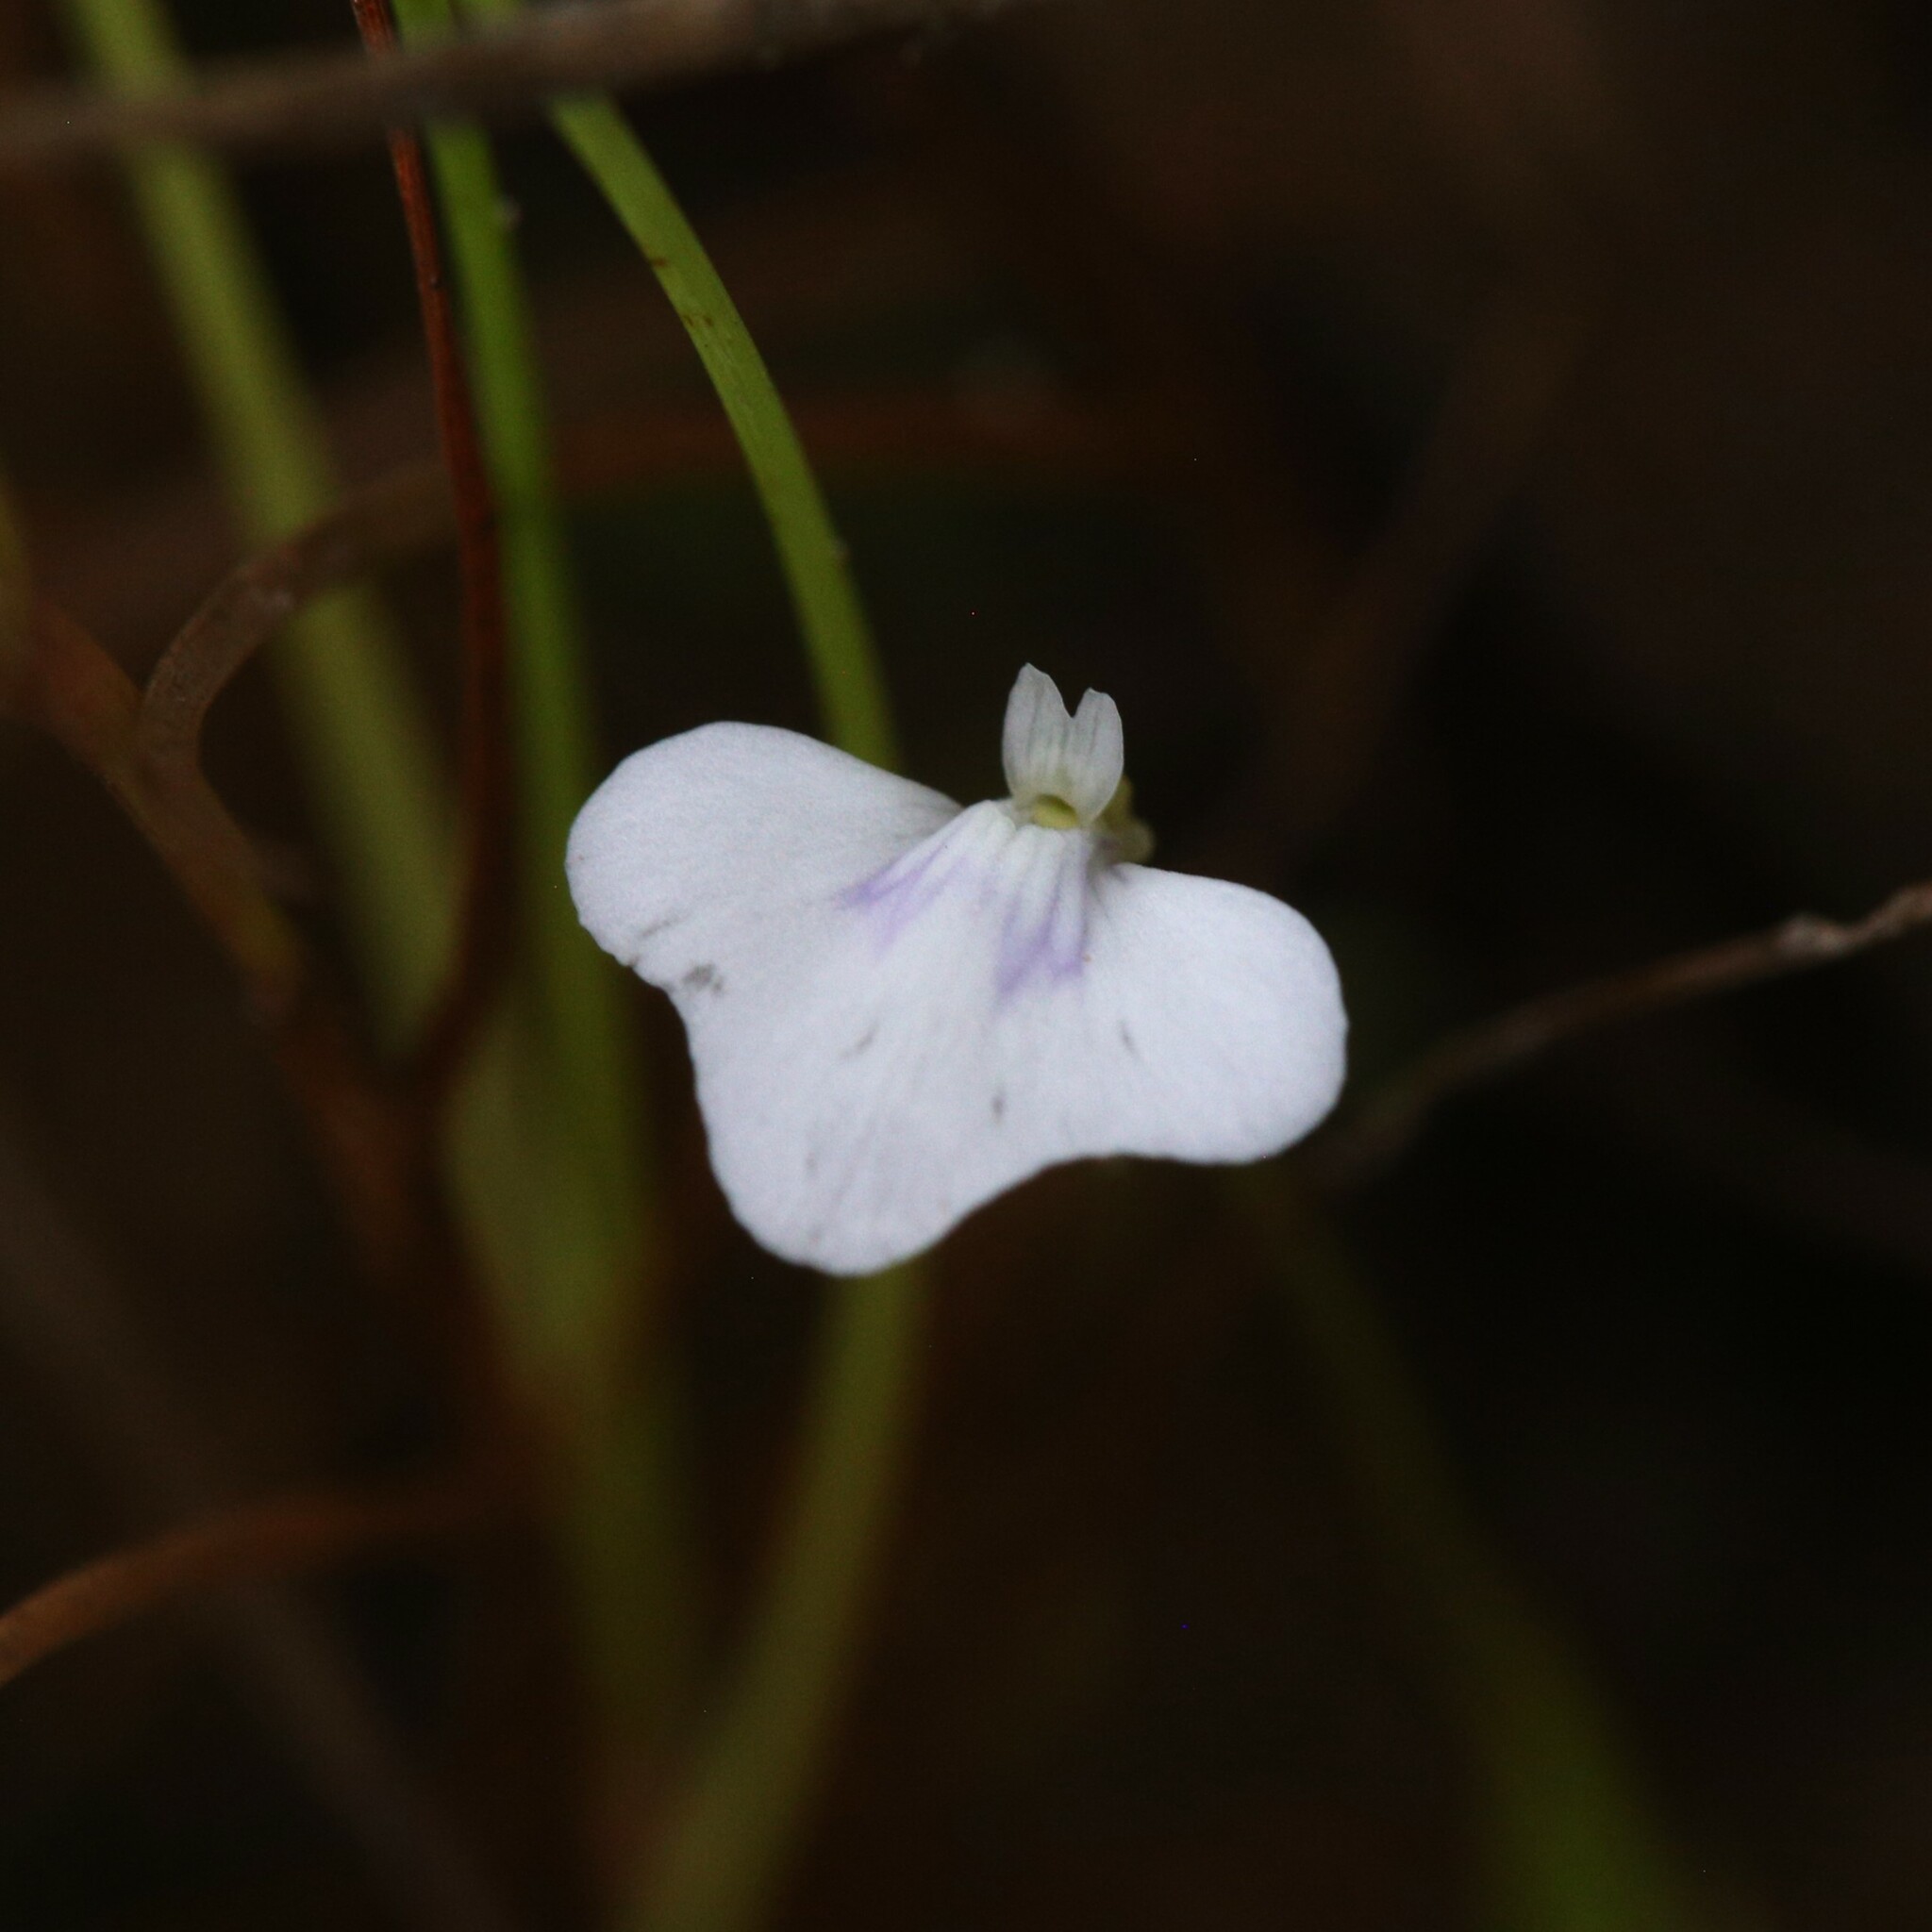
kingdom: Plantae
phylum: Tracheophyta
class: Magnoliopsida
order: Lamiales
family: Lentibulariaceae
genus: Utricularia
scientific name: Utricularia leptorhyncha
